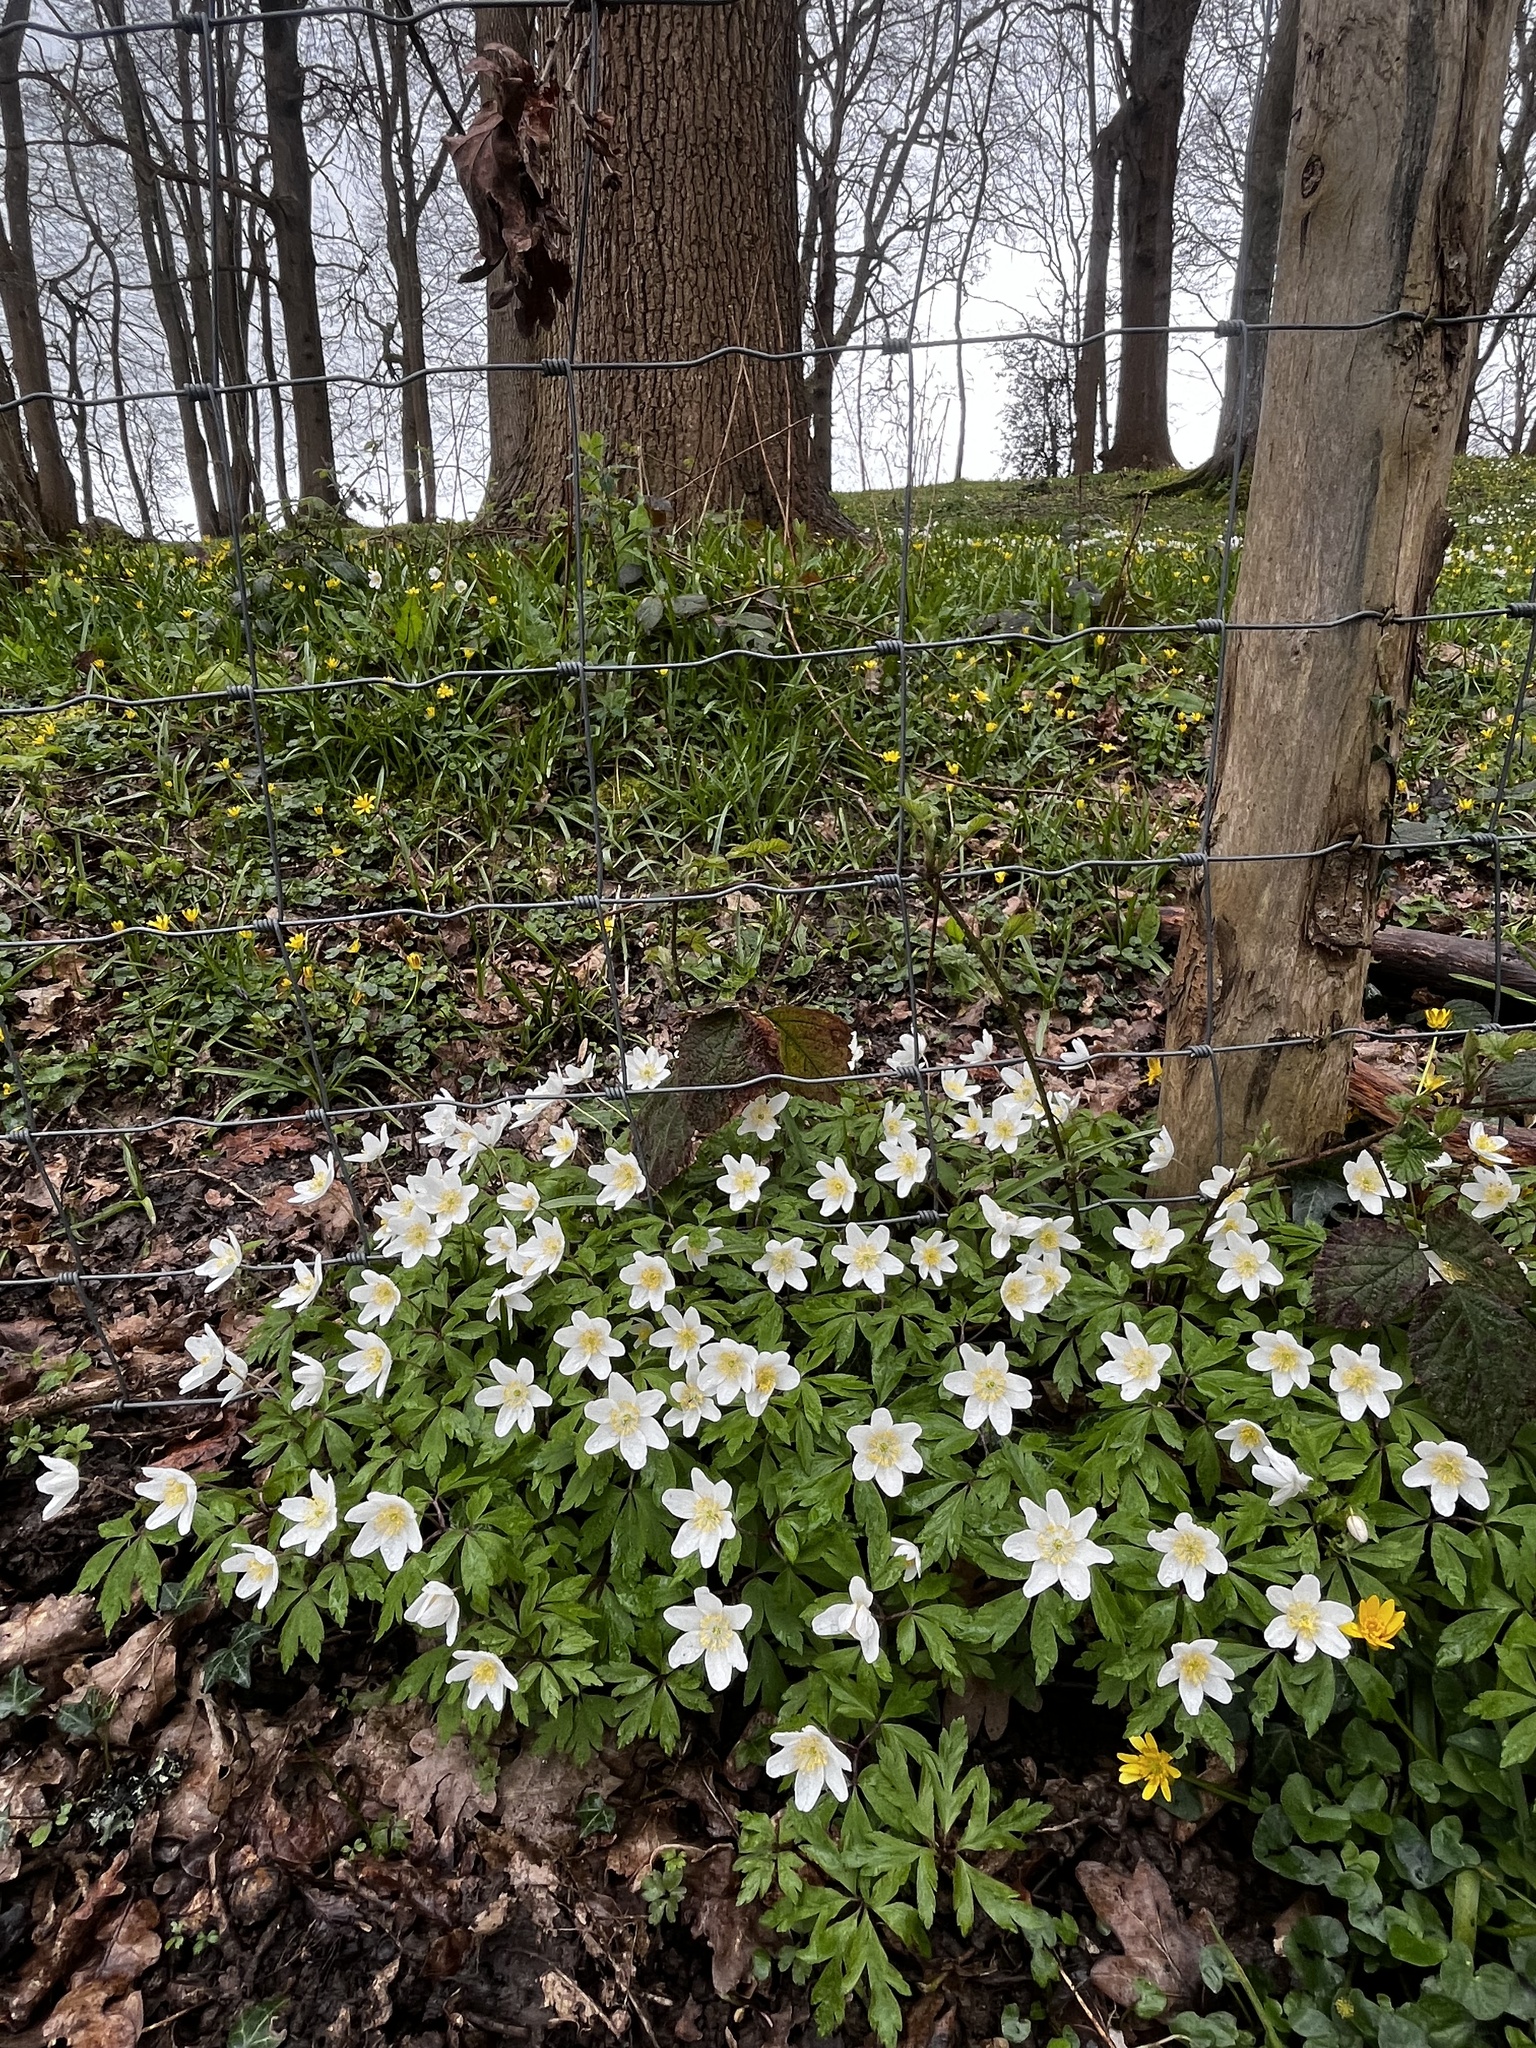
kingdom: Plantae
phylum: Tracheophyta
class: Magnoliopsida
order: Ranunculales
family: Ranunculaceae
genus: Anemone
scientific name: Anemone nemorosa
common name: Wood anemone
